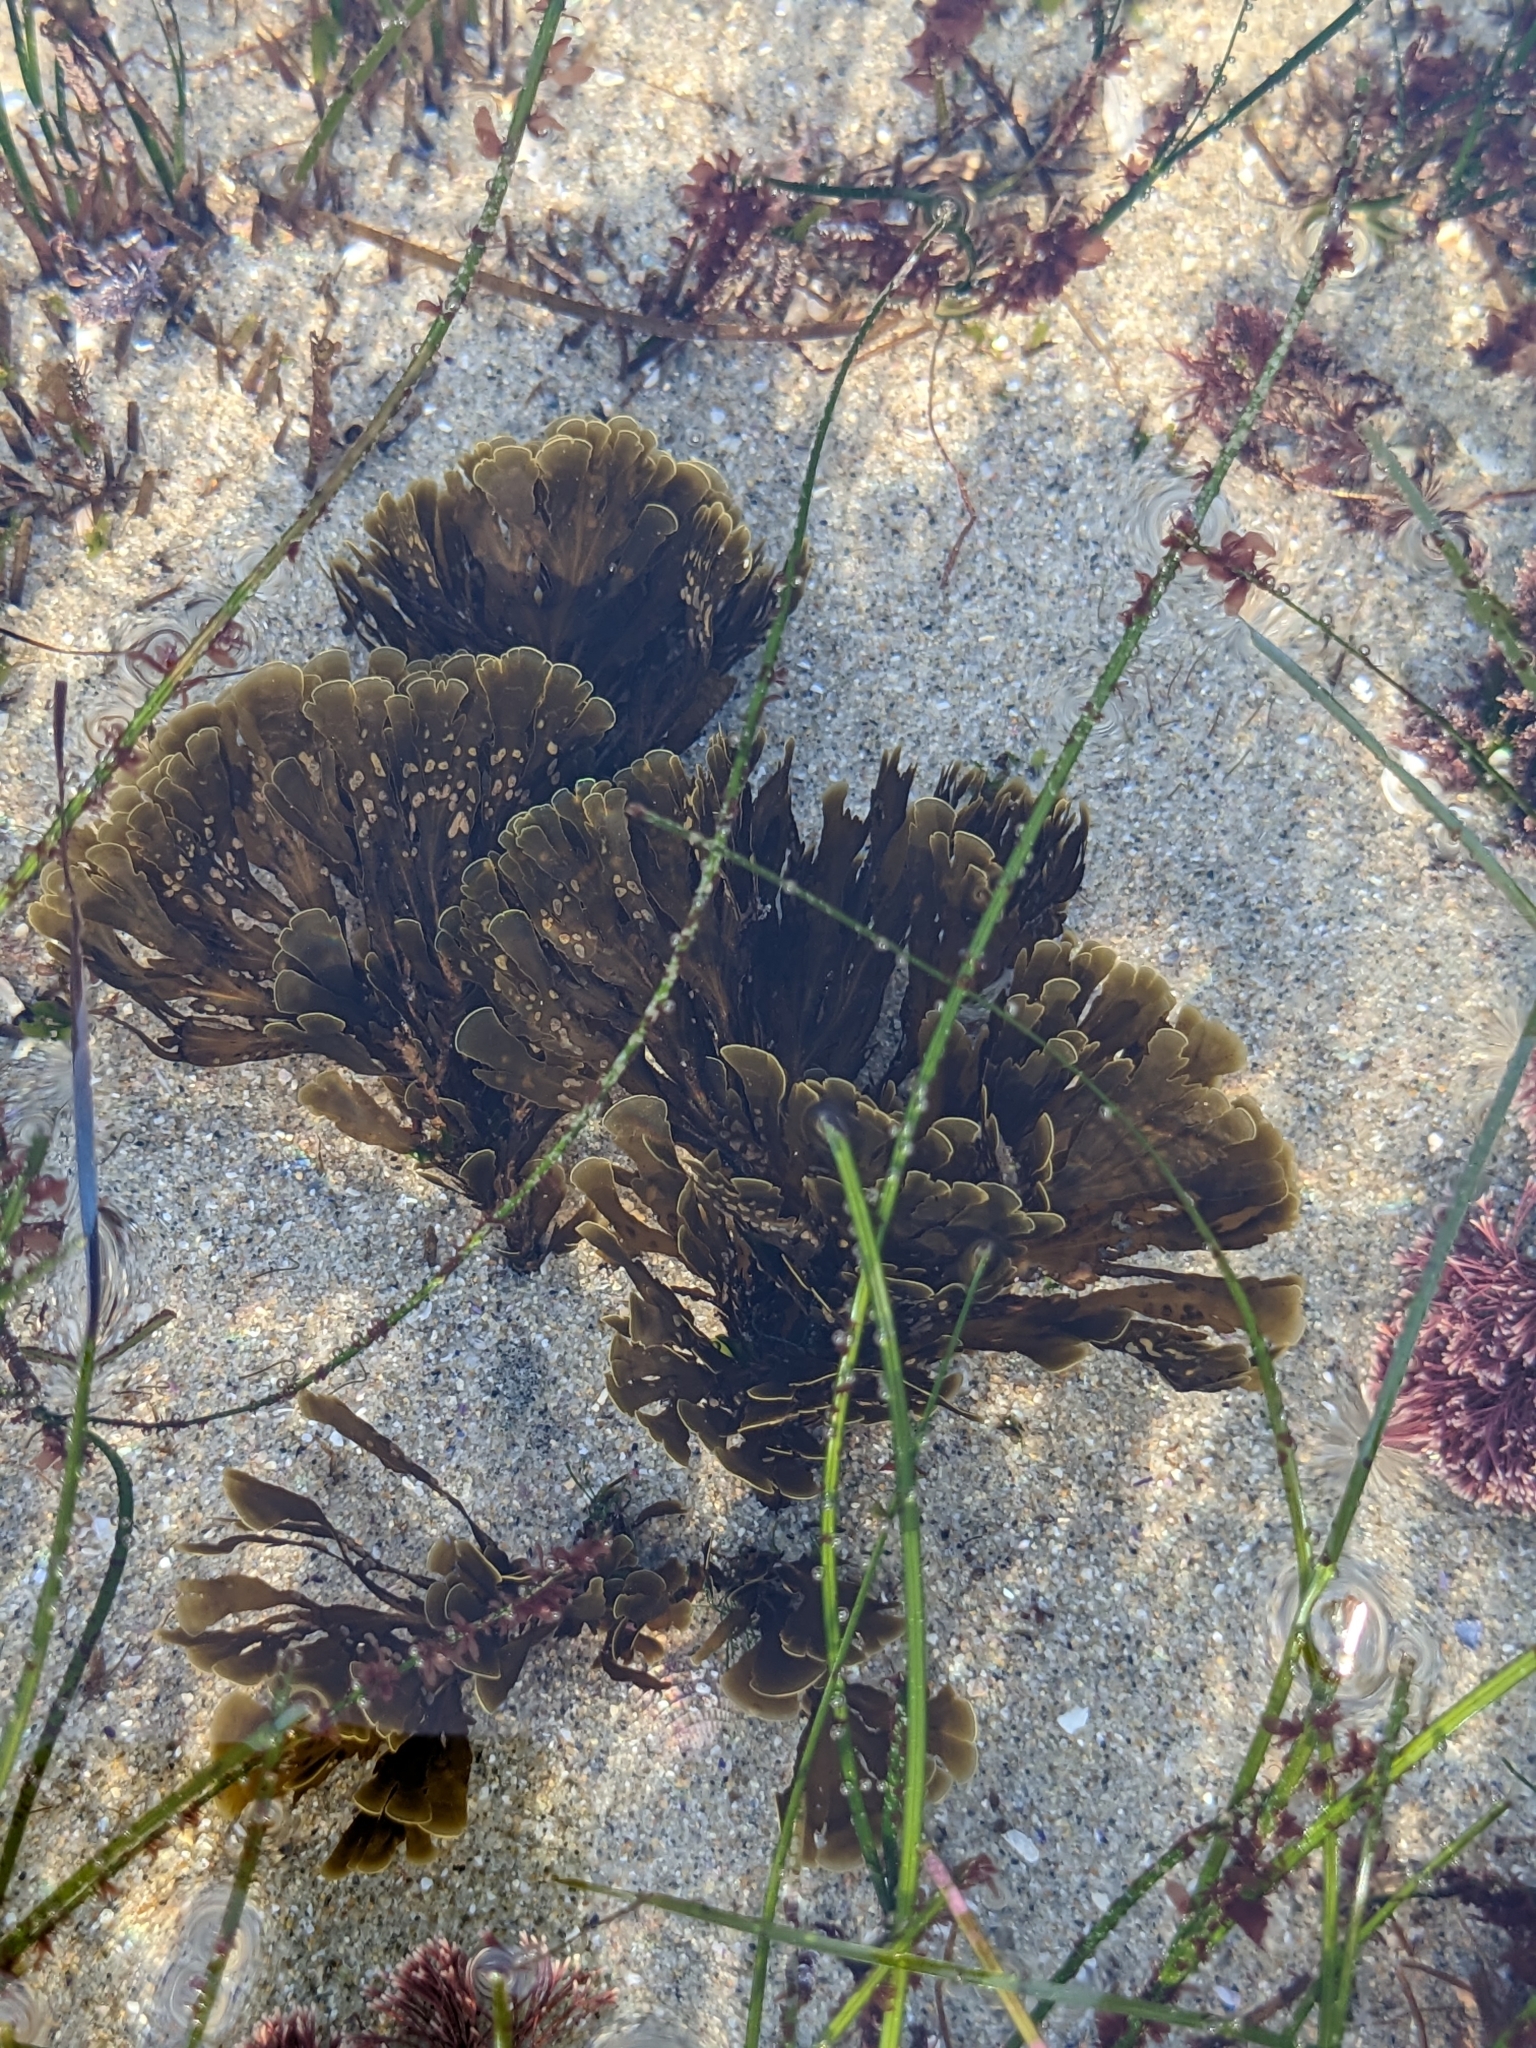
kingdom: Chromista
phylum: Ochrophyta
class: Phaeophyceae
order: Dictyotales
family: Dictyotaceae
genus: Zonaria
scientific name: Zonaria farlowii
